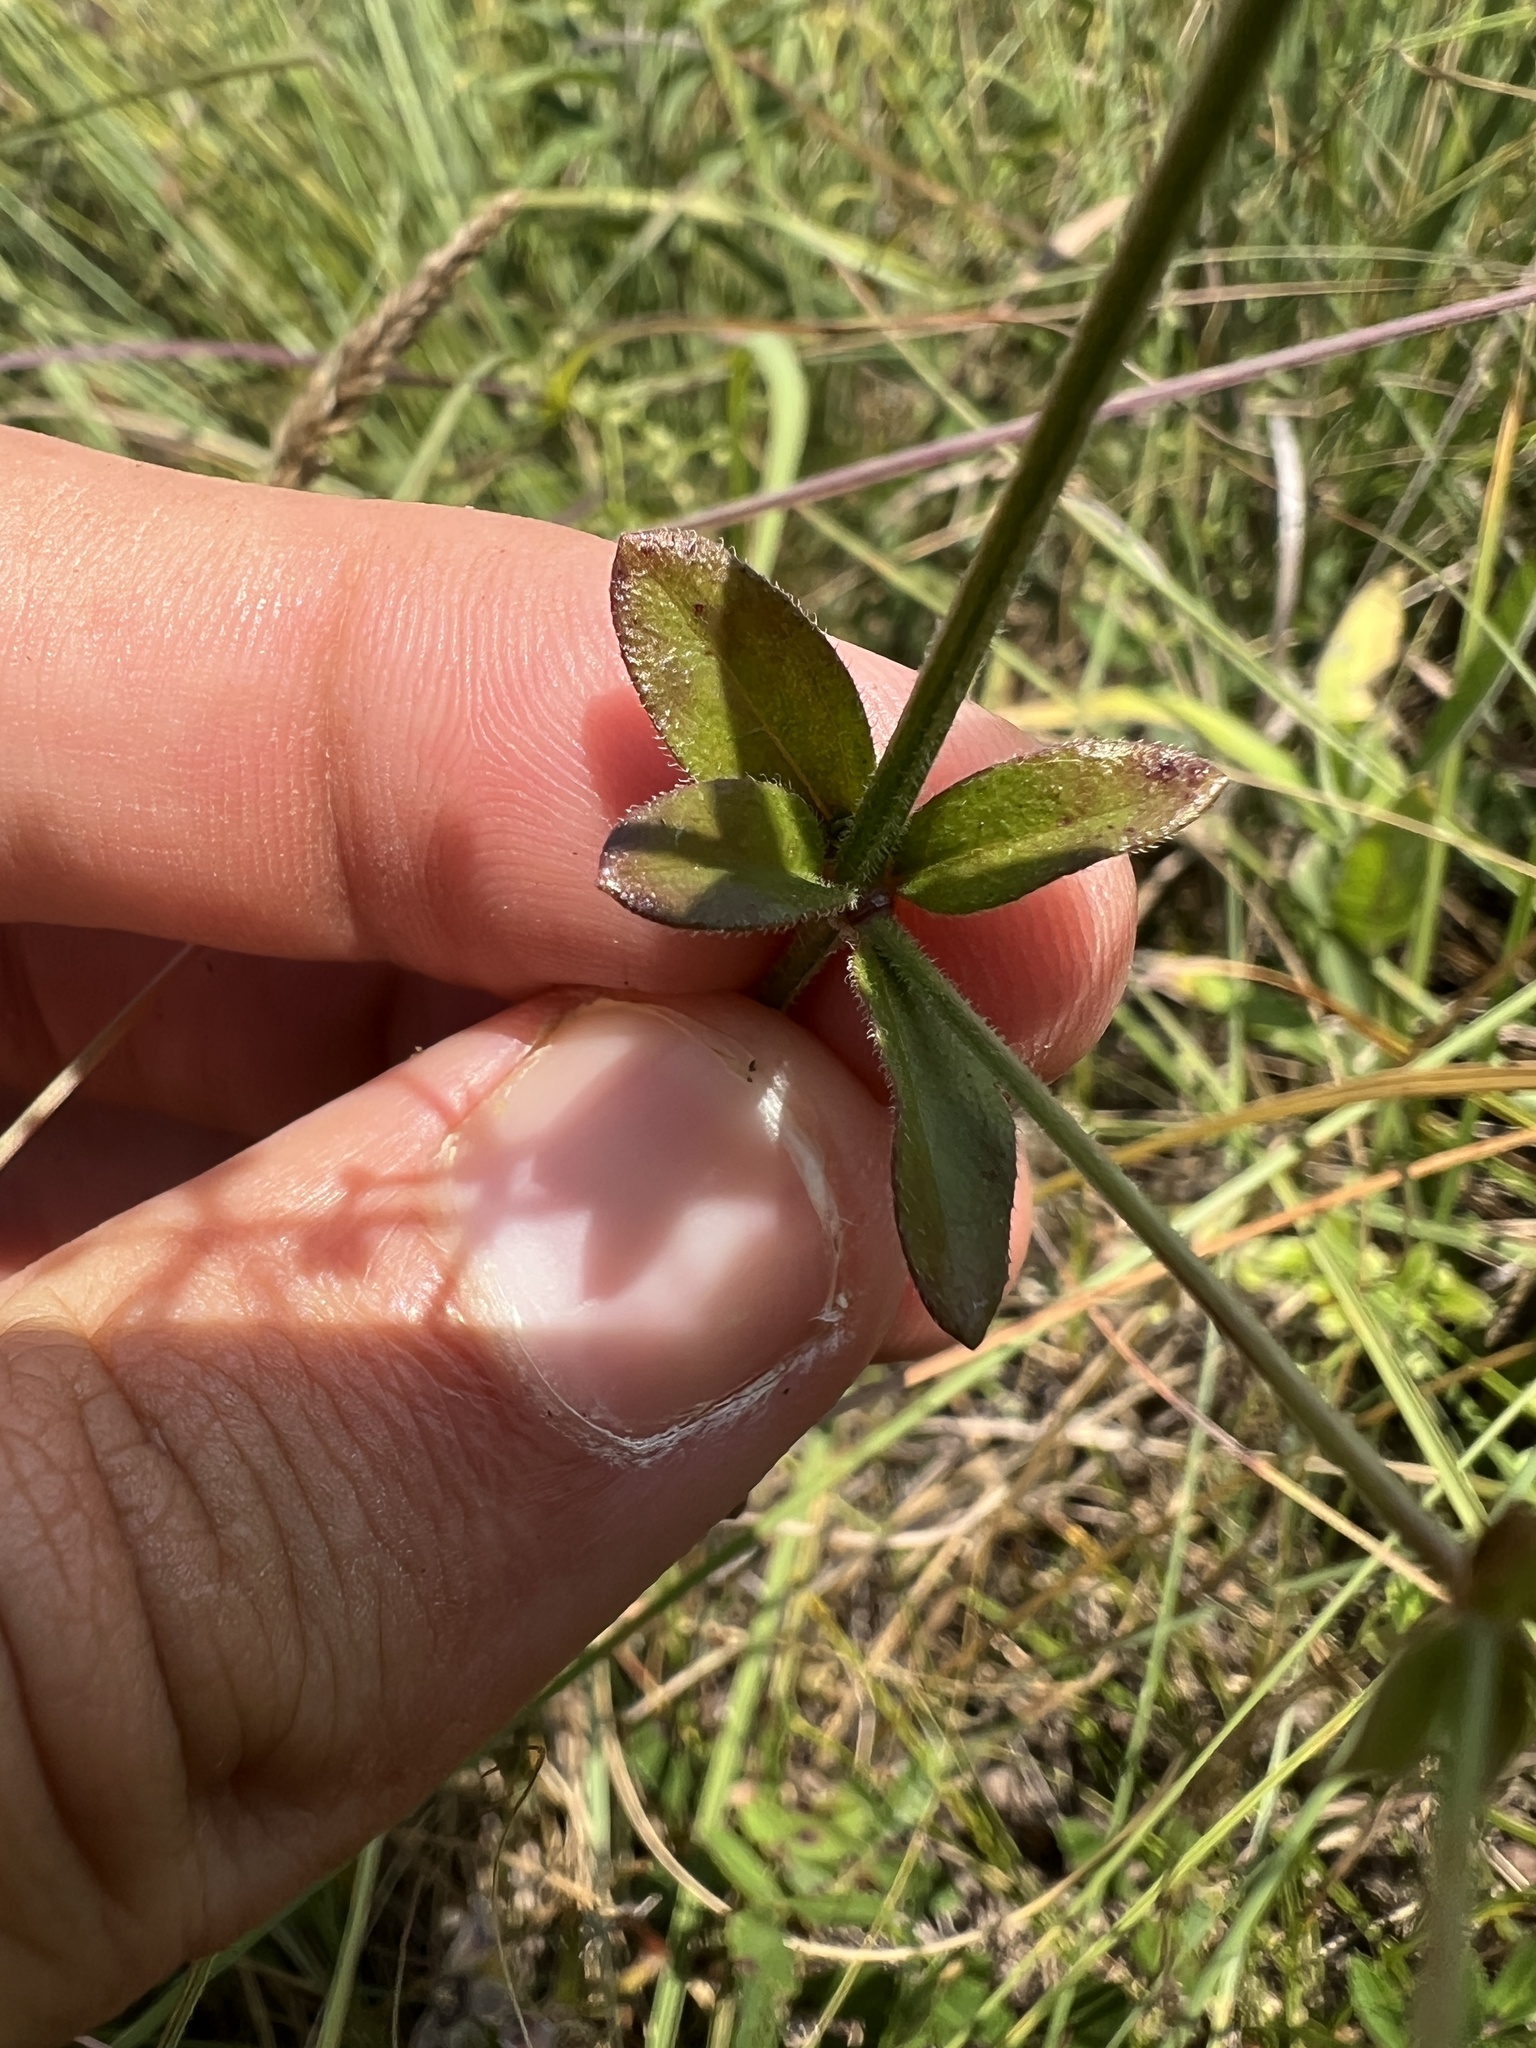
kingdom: Plantae
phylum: Tracheophyta
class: Magnoliopsida
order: Gentianales
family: Rubiaceae
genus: Galium
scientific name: Galium pilosum
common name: Hairy bedstraw
